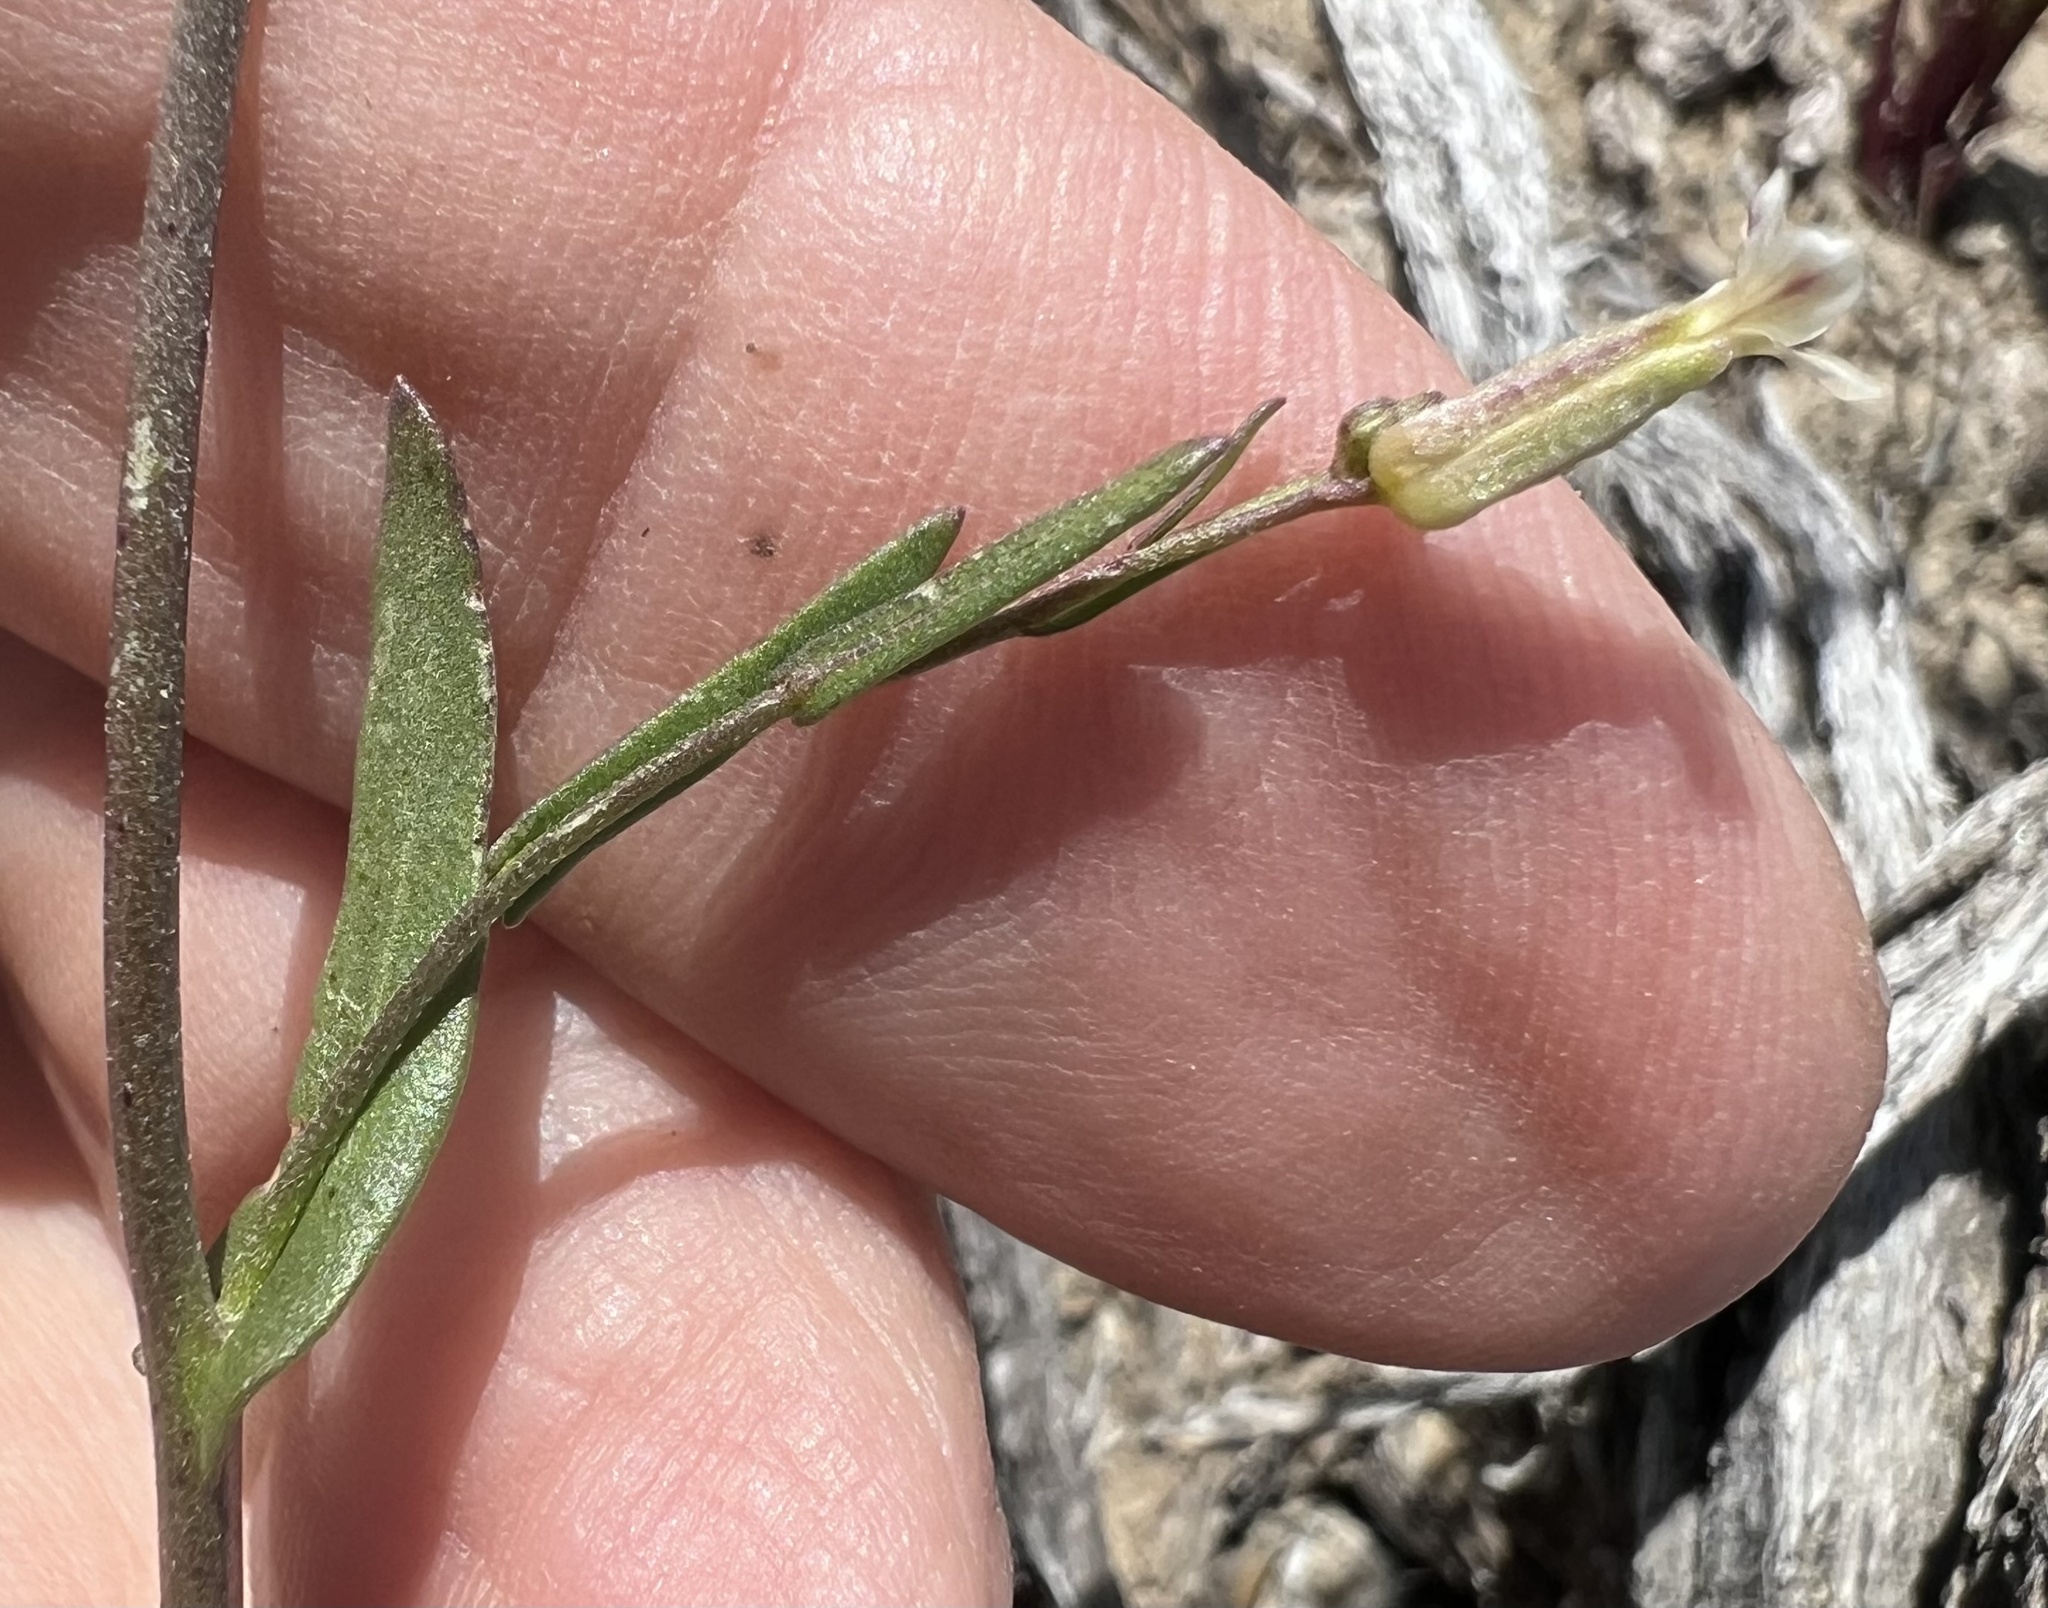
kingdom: Plantae
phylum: Tracheophyta
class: Magnoliopsida
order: Brassicales
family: Brassicaceae
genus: Streptanthus
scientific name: Streptanthus cooperi
